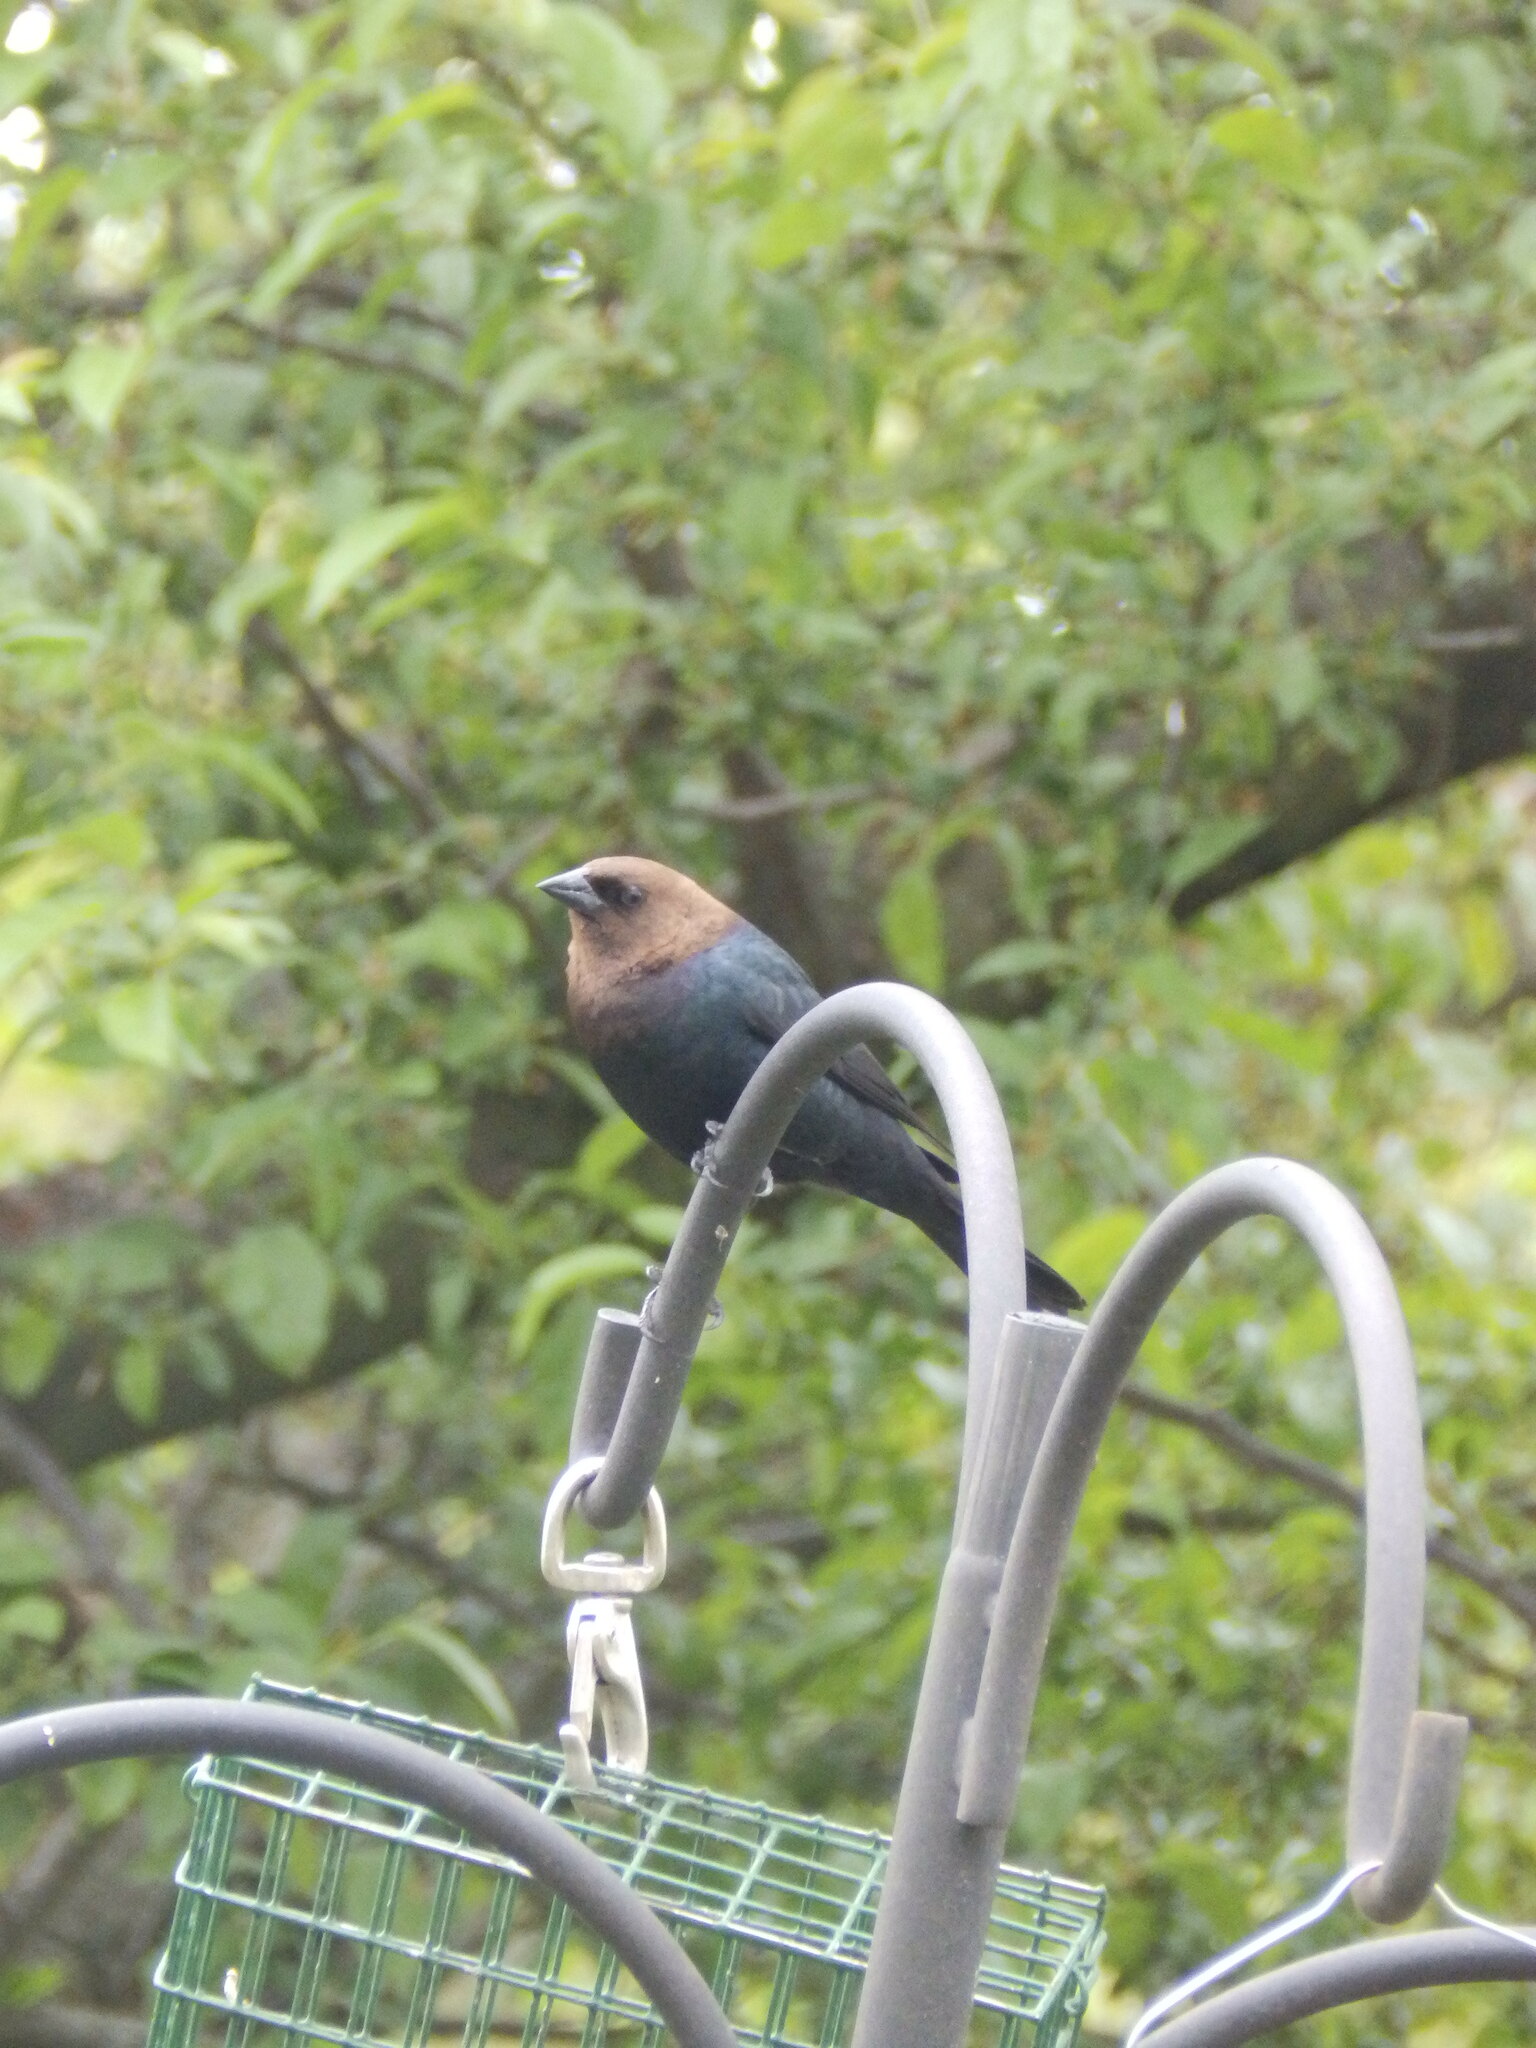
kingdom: Animalia
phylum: Chordata
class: Aves
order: Passeriformes
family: Icteridae
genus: Molothrus
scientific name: Molothrus ater
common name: Brown-headed cowbird
